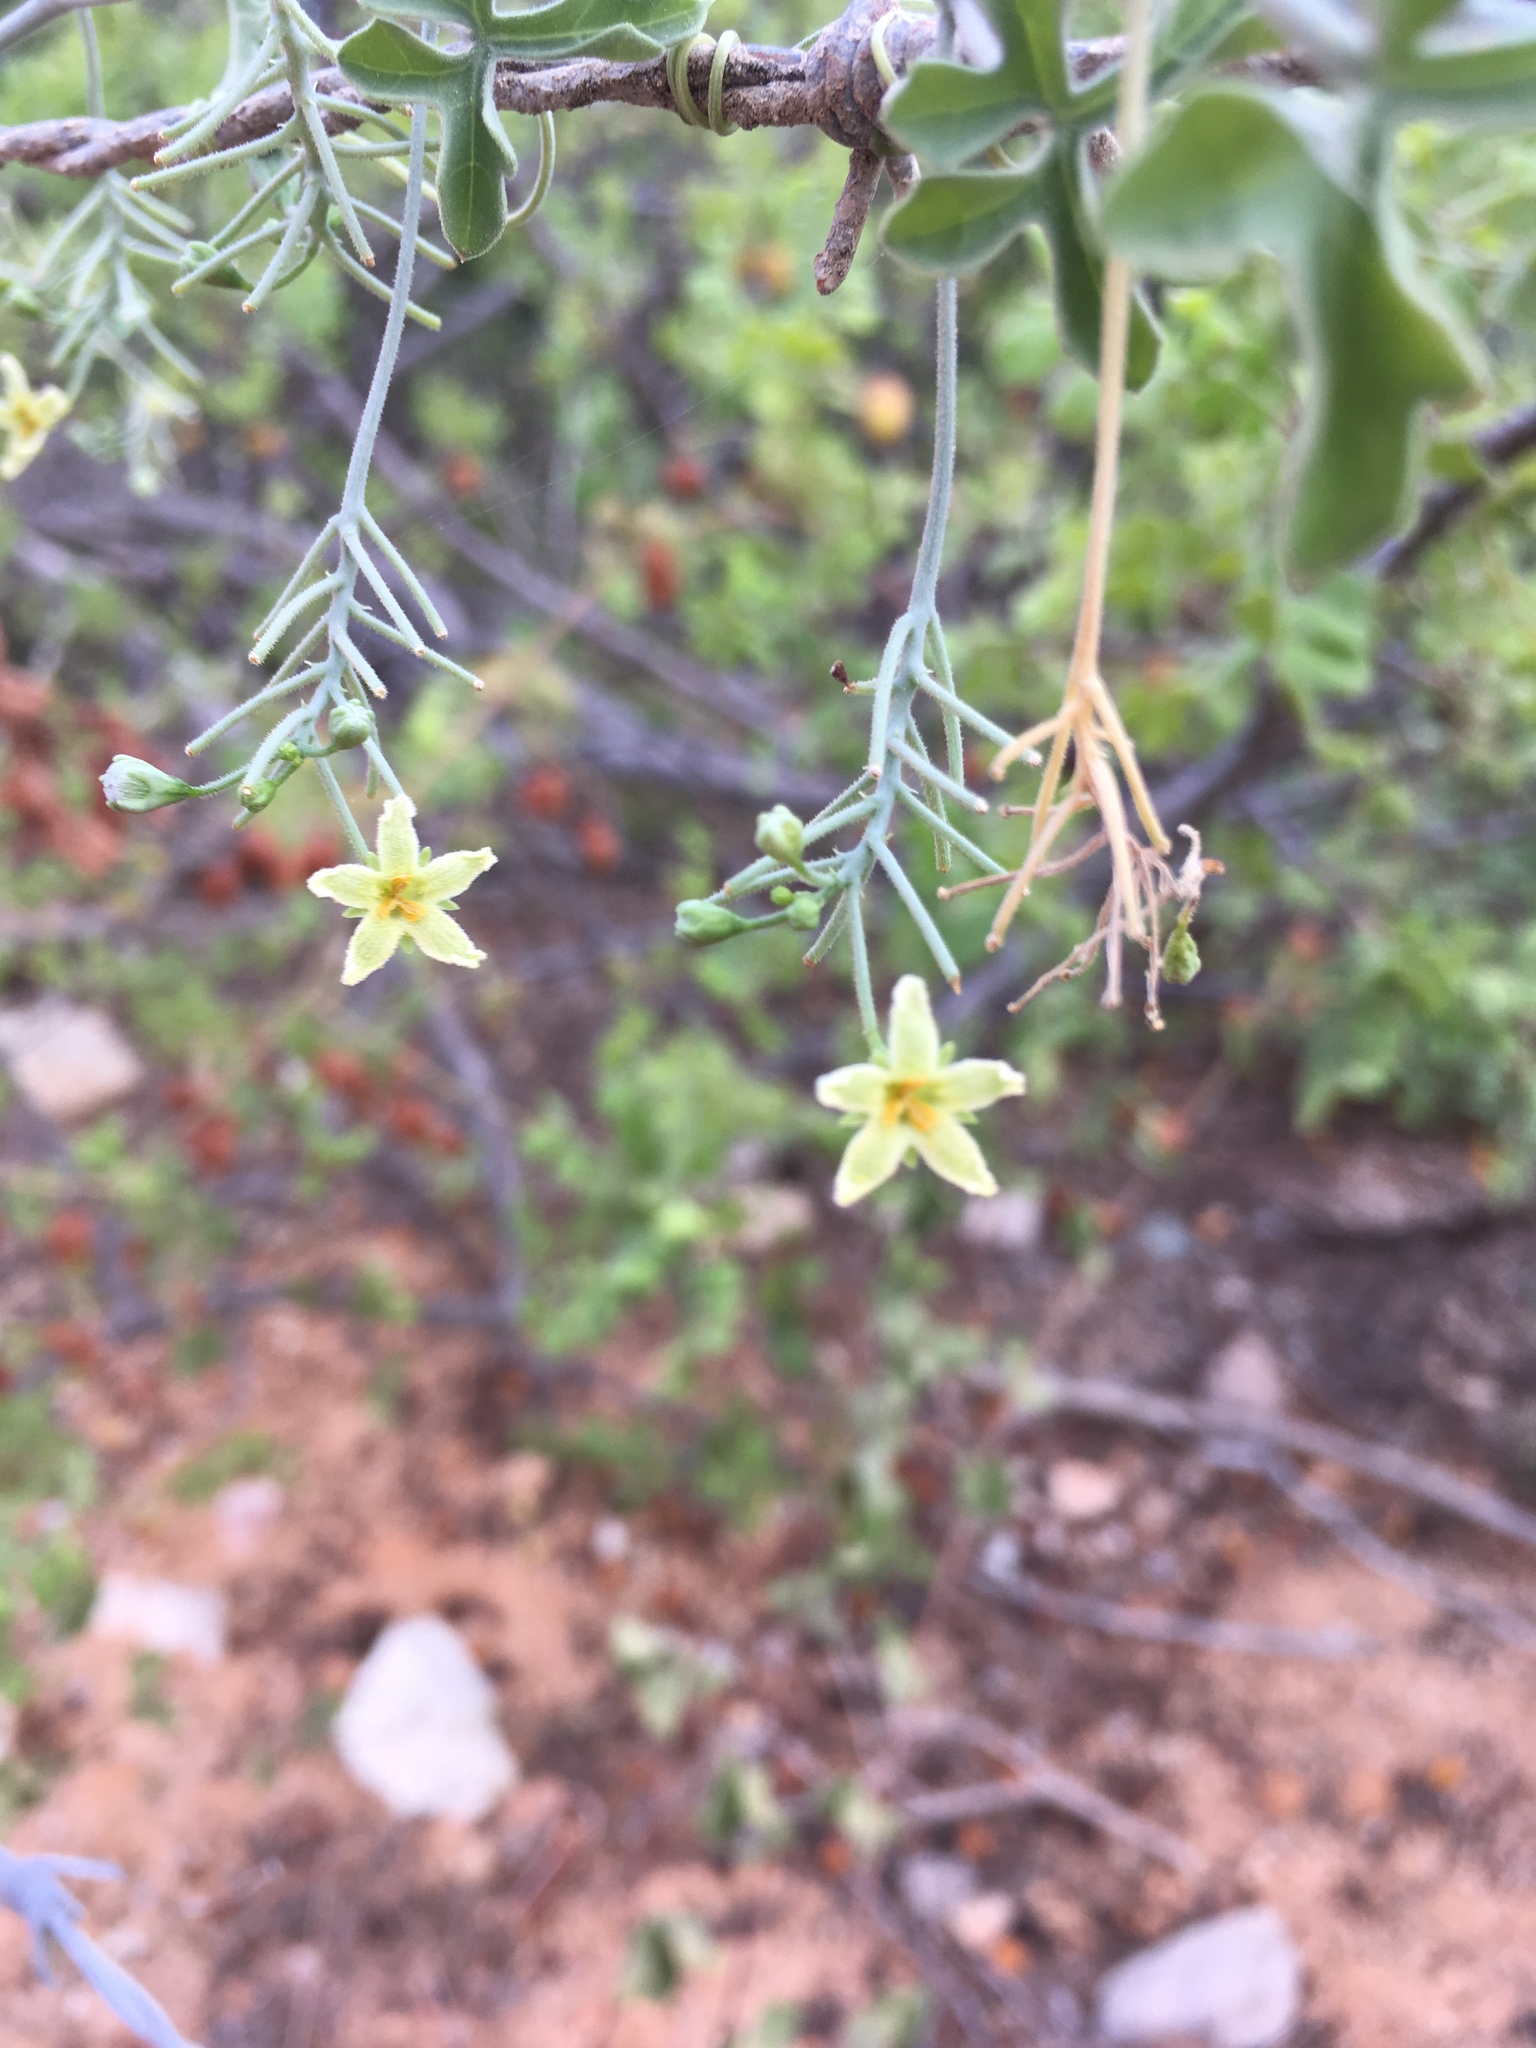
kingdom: Plantae
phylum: Tracheophyta
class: Magnoliopsida
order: Cucurbitales
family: Cucurbitaceae
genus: Ibervillea
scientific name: Ibervillea sonorae
